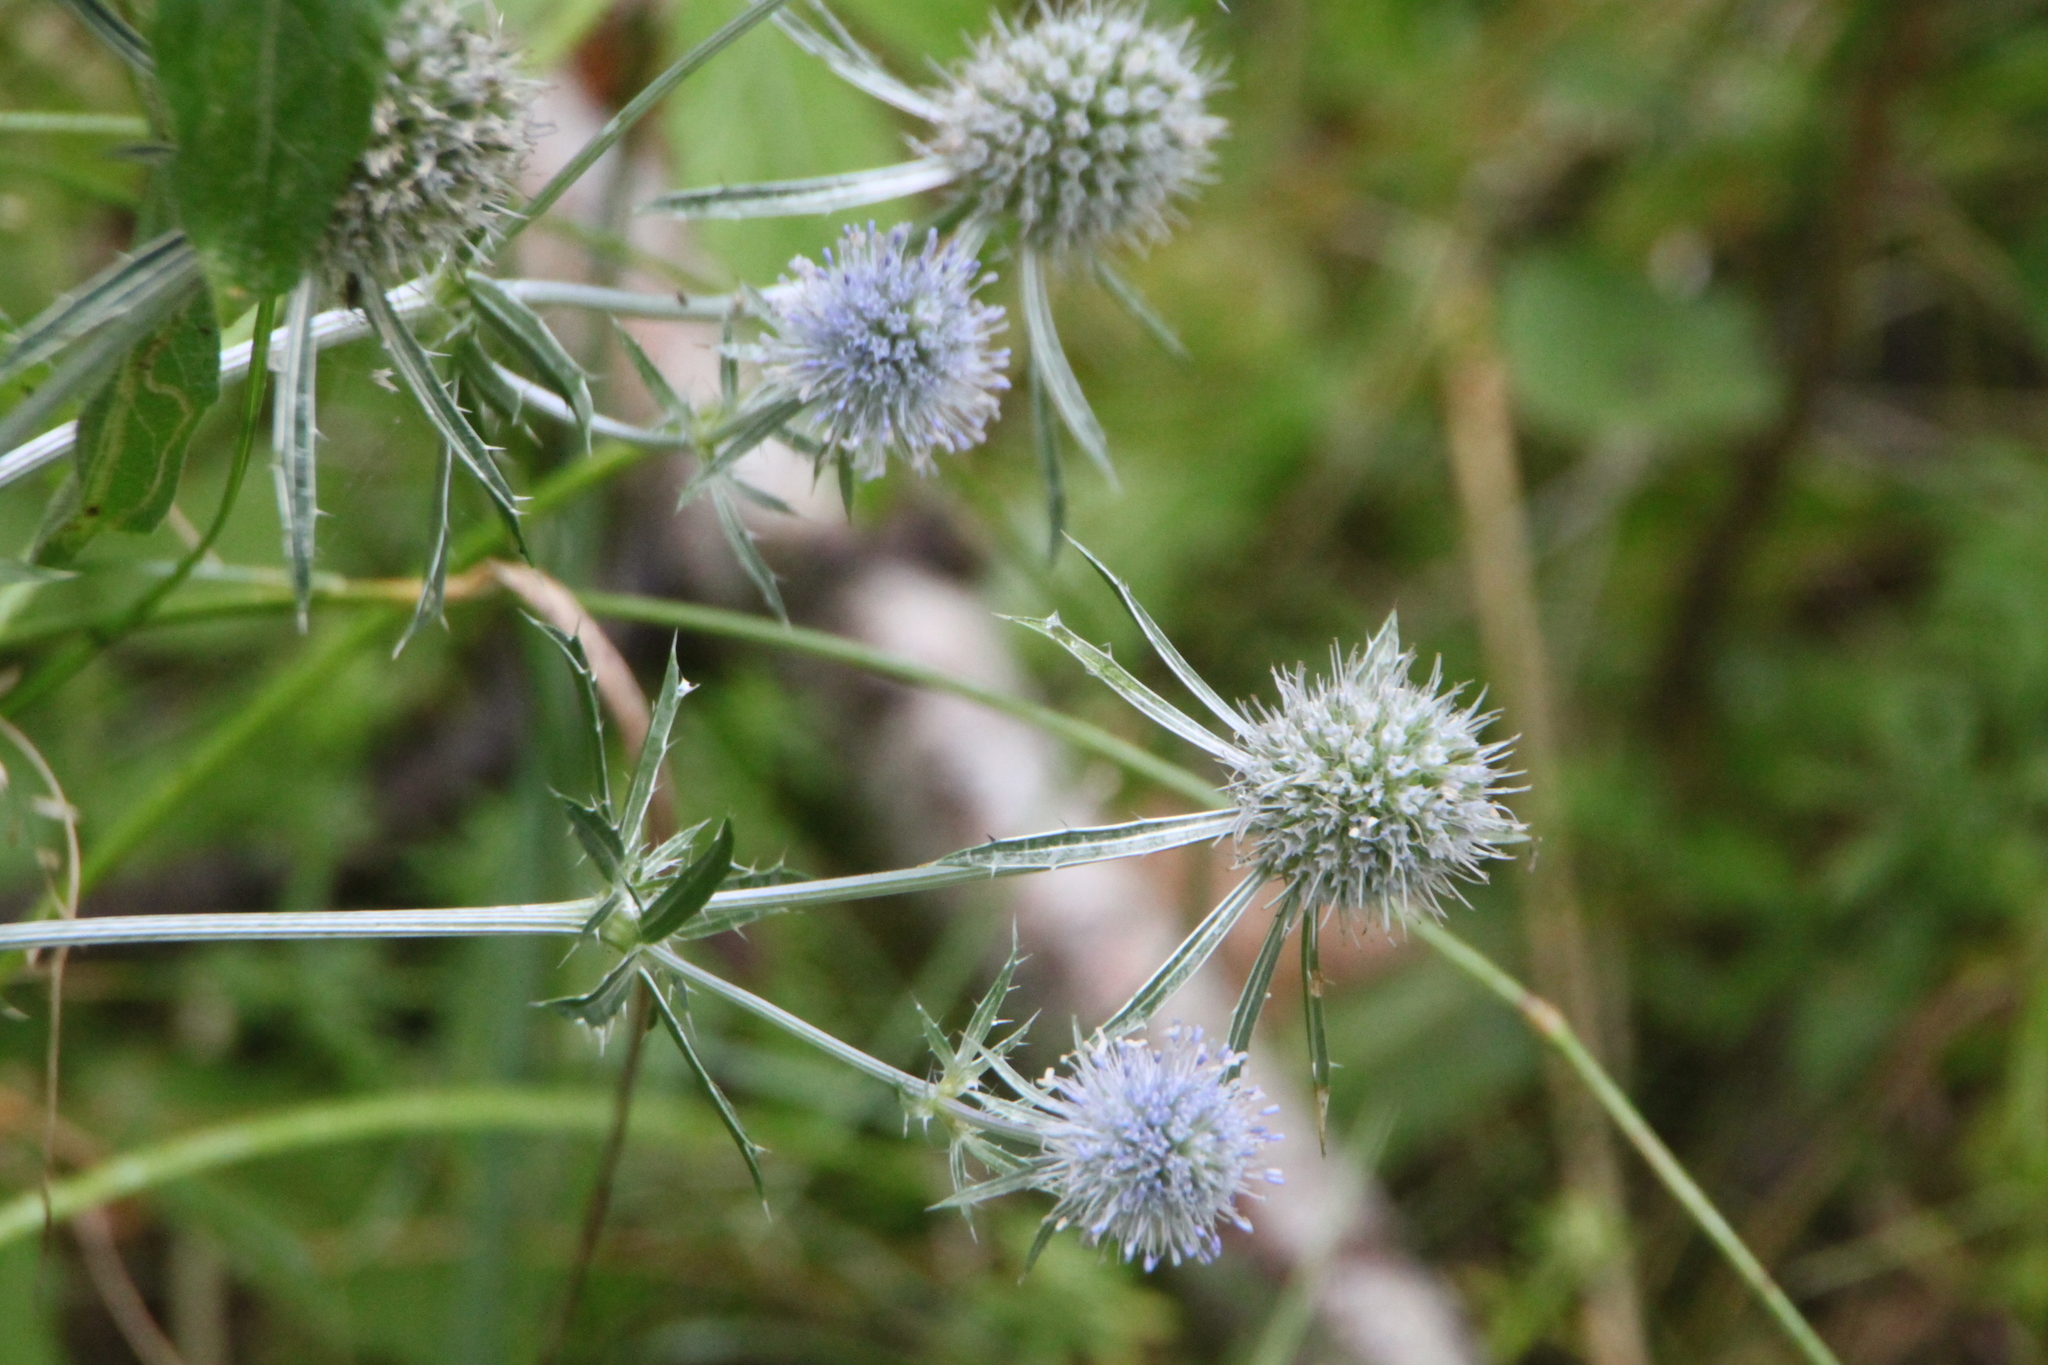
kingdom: Plantae
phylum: Tracheophyta
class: Magnoliopsida
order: Apiales
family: Apiaceae
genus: Eryngium
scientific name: Eryngium planum
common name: Blue eryngo
